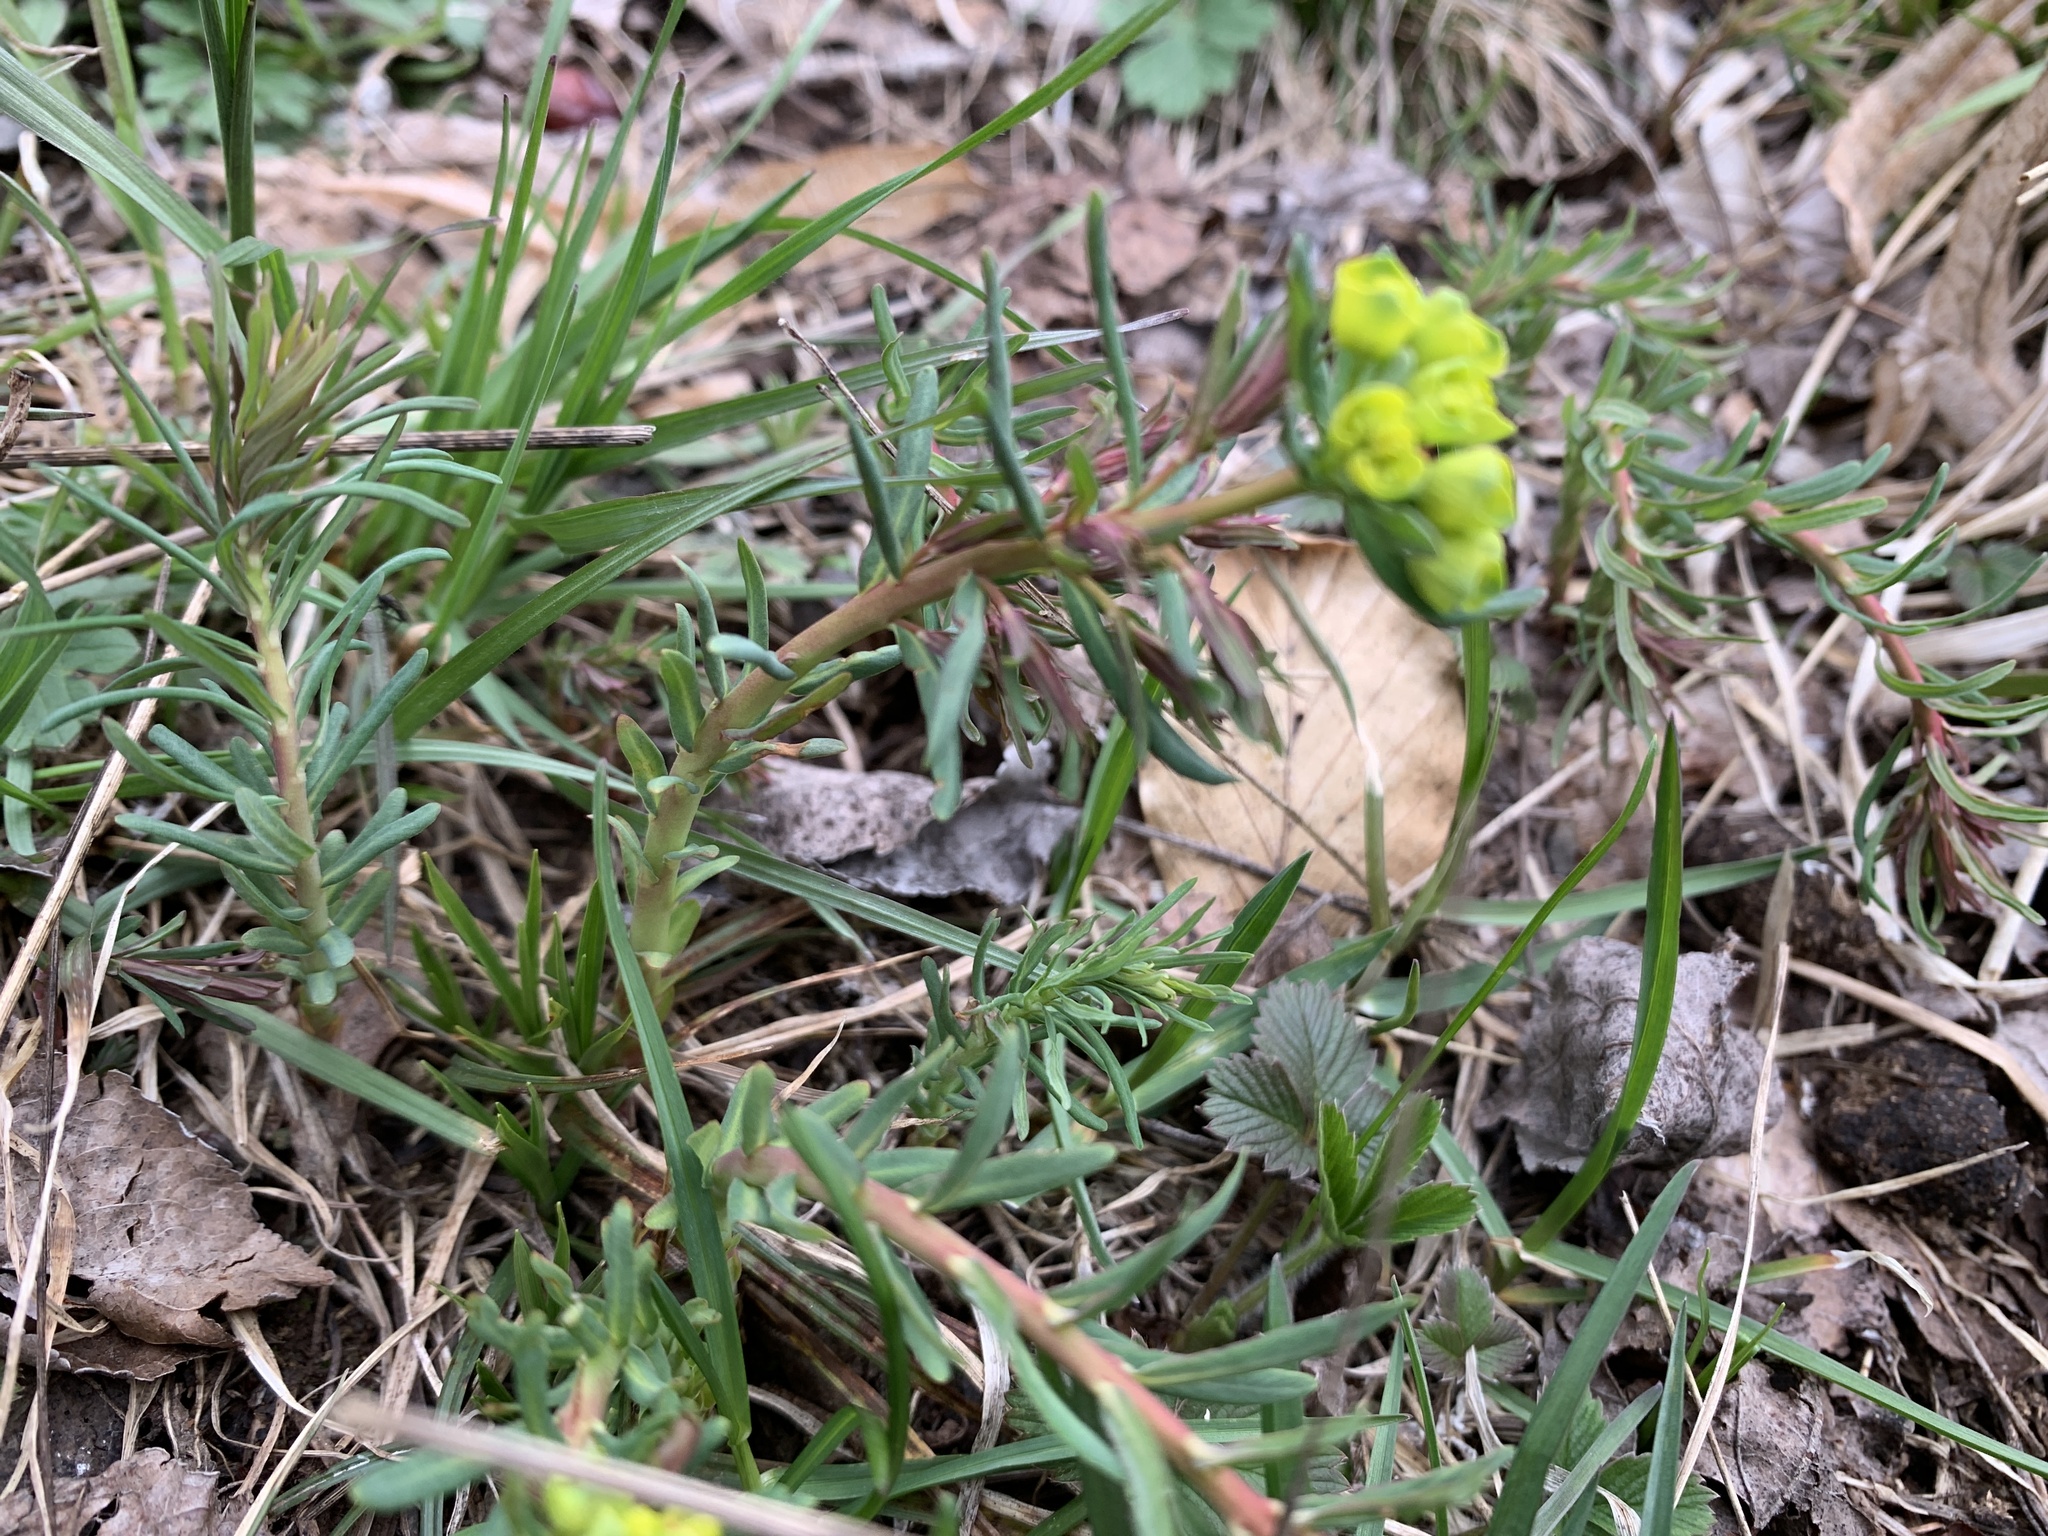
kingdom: Plantae
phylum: Tracheophyta
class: Magnoliopsida
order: Malpighiales
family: Euphorbiaceae
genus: Euphorbia
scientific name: Euphorbia cyparissias
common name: Cypress spurge
